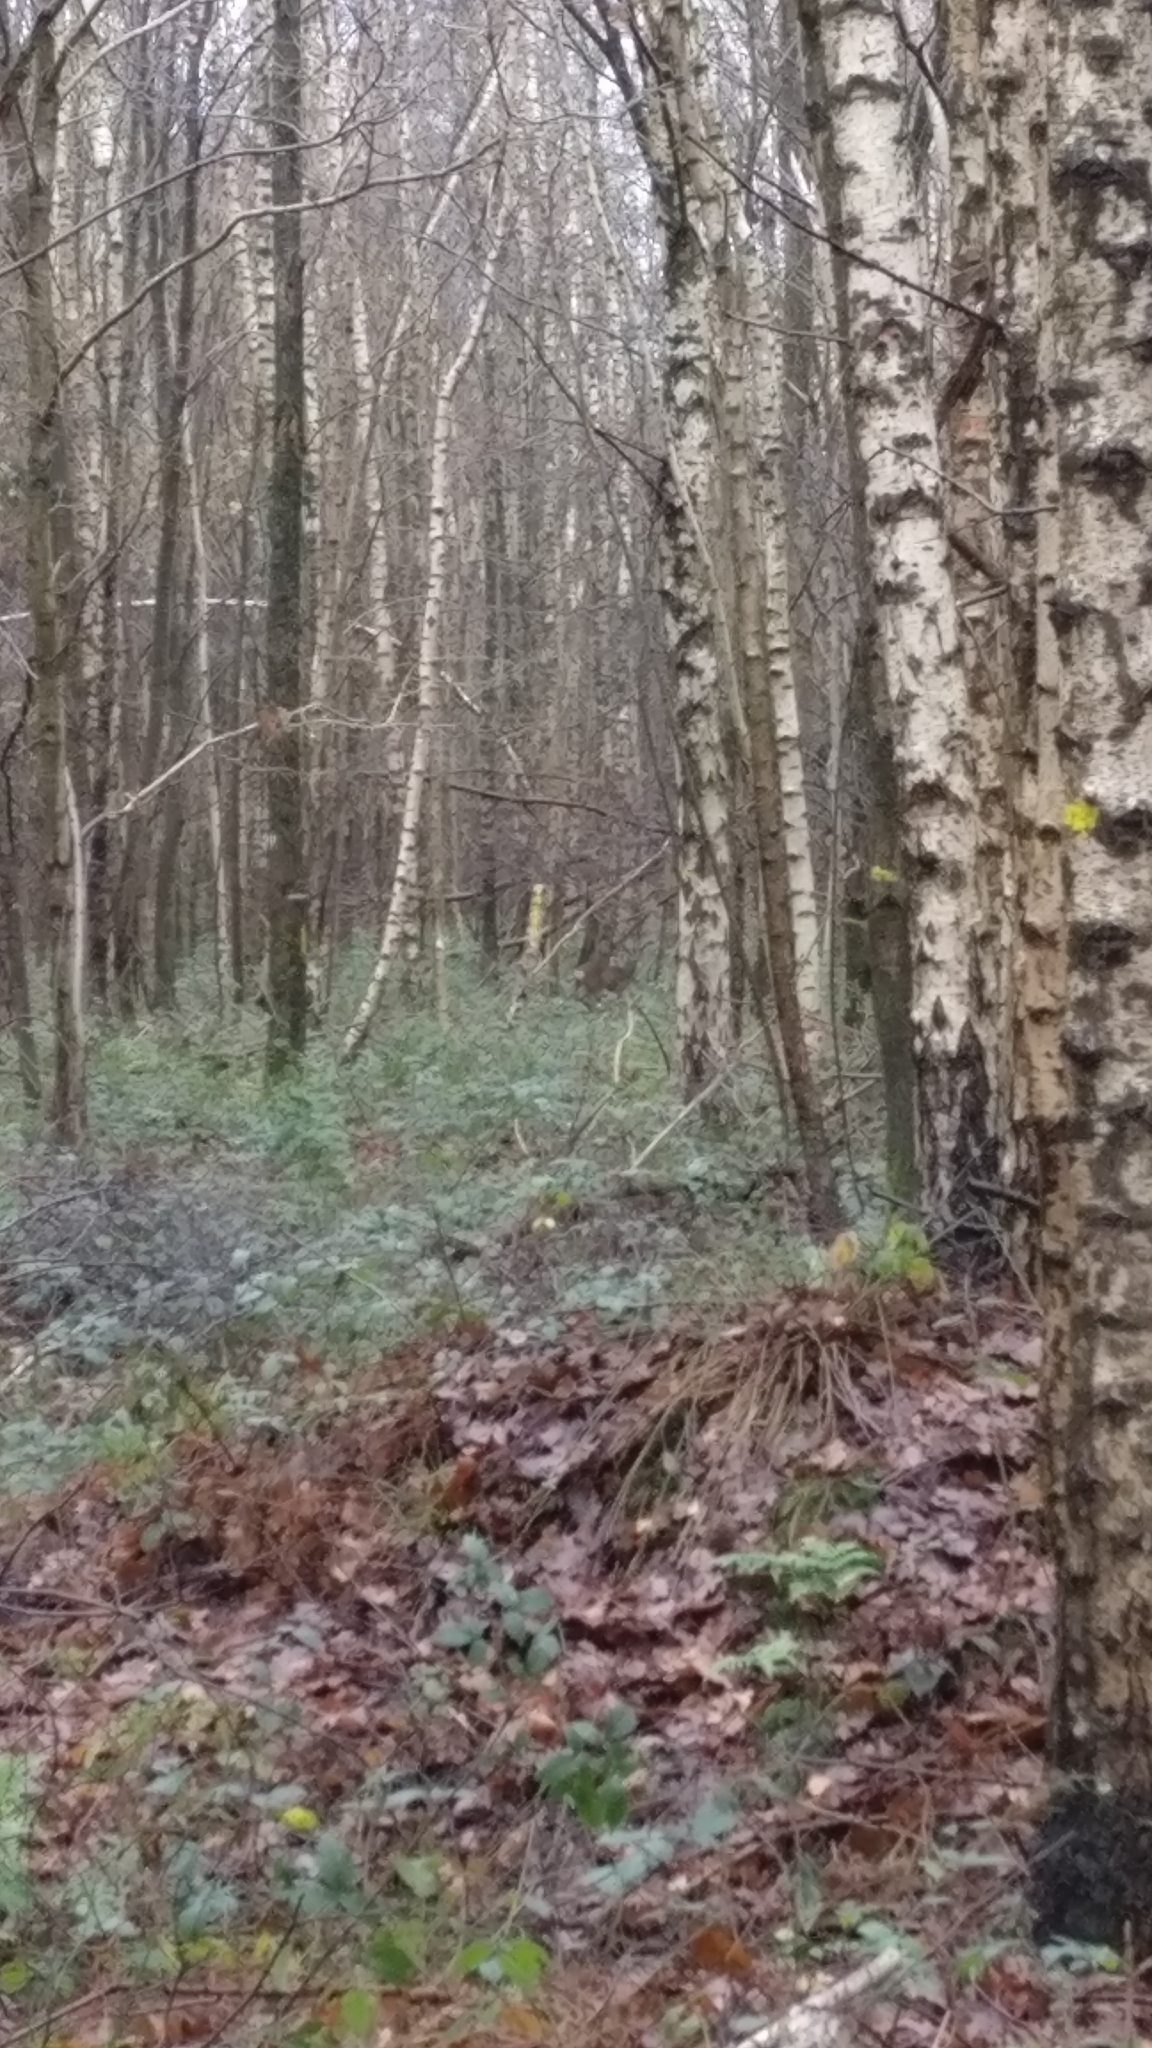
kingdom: Animalia
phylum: Chordata
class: Mammalia
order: Artiodactyla
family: Cervidae
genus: Capreolus
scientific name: Capreolus capreolus
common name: Western roe deer
